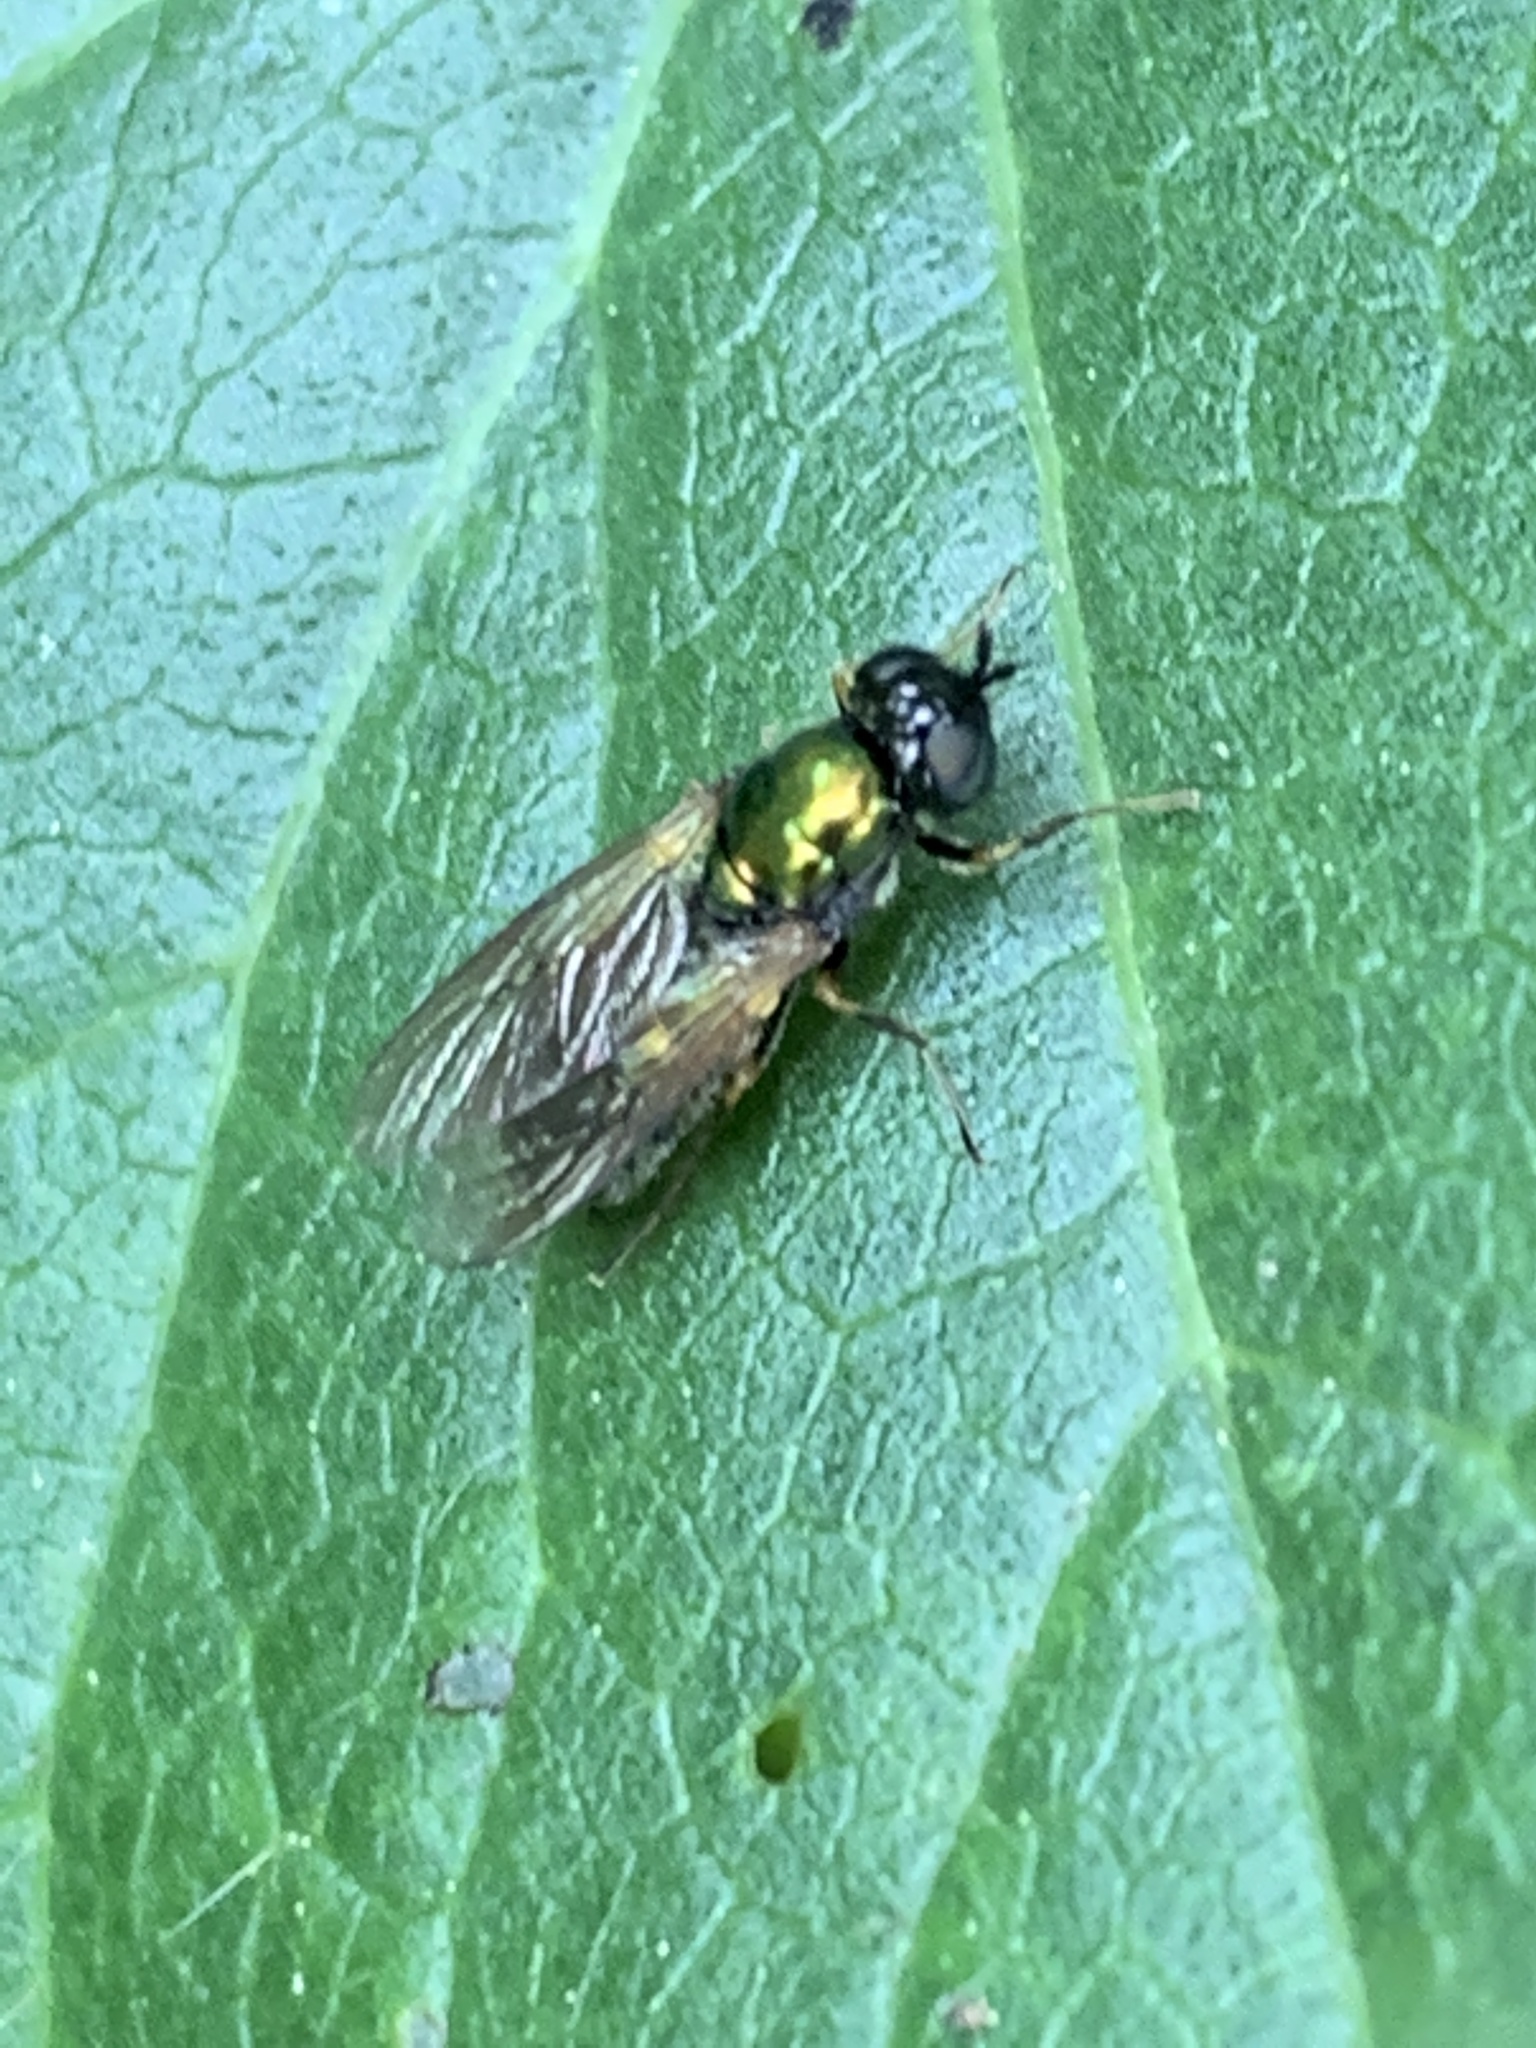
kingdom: Animalia
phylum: Arthropoda
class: Insecta
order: Diptera
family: Stratiomyidae
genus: Chloromyia
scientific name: Chloromyia formosa
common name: Soldier fly
